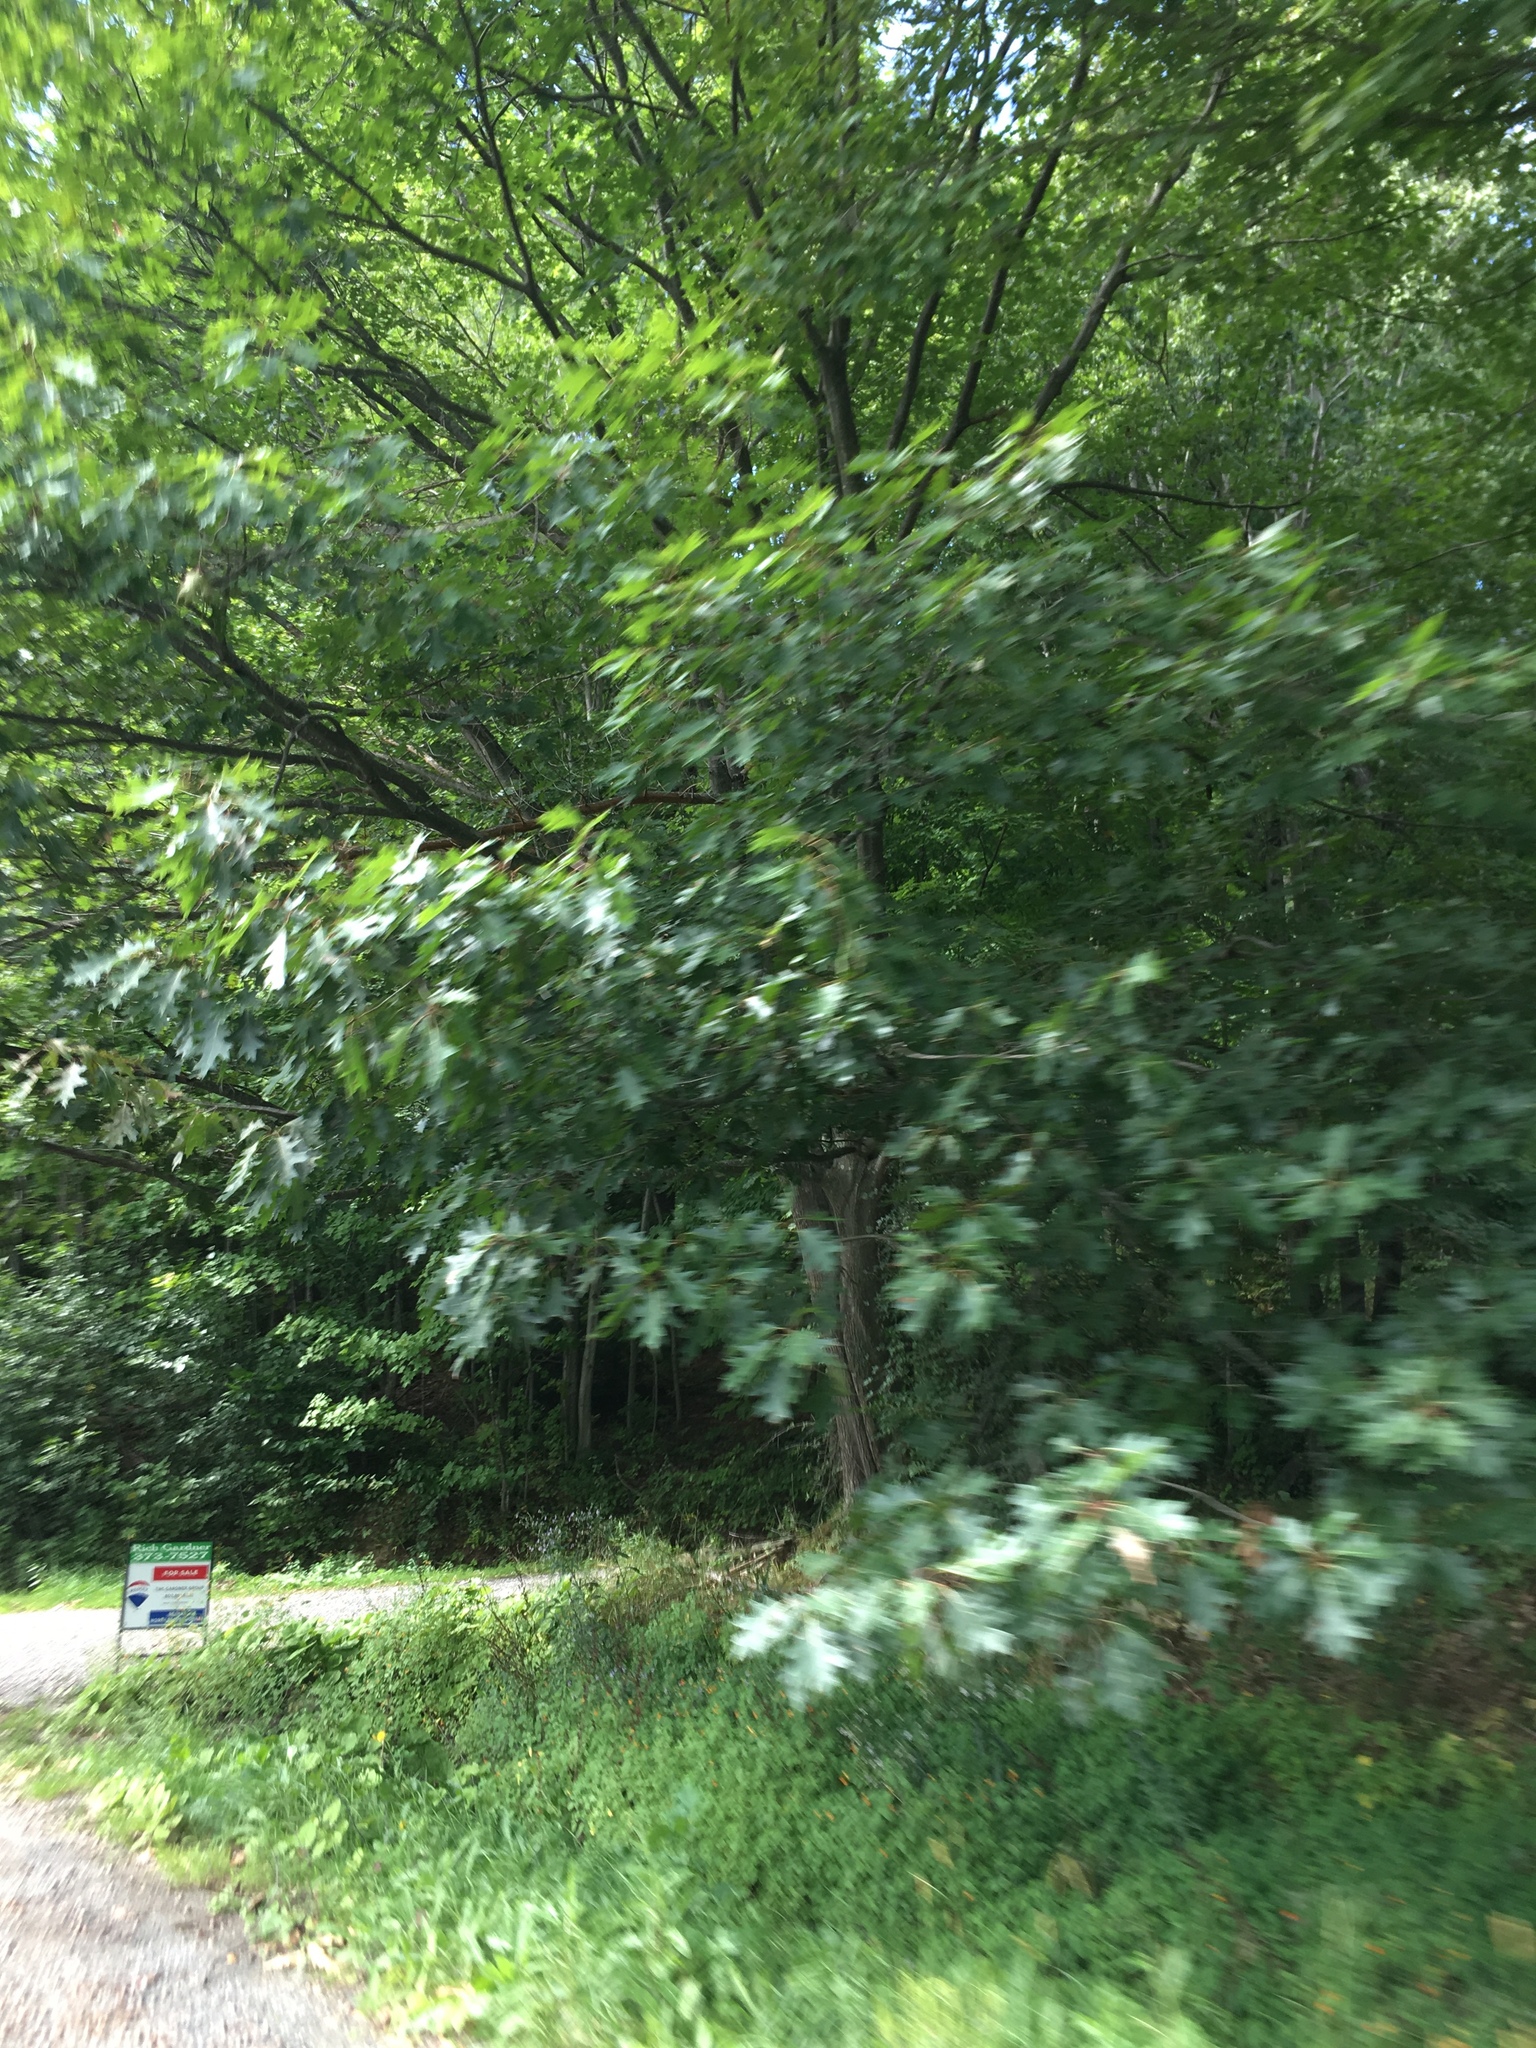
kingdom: Plantae
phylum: Tracheophyta
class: Magnoliopsida
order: Fagales
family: Fagaceae
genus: Quercus
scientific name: Quercus rubra
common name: Red oak
